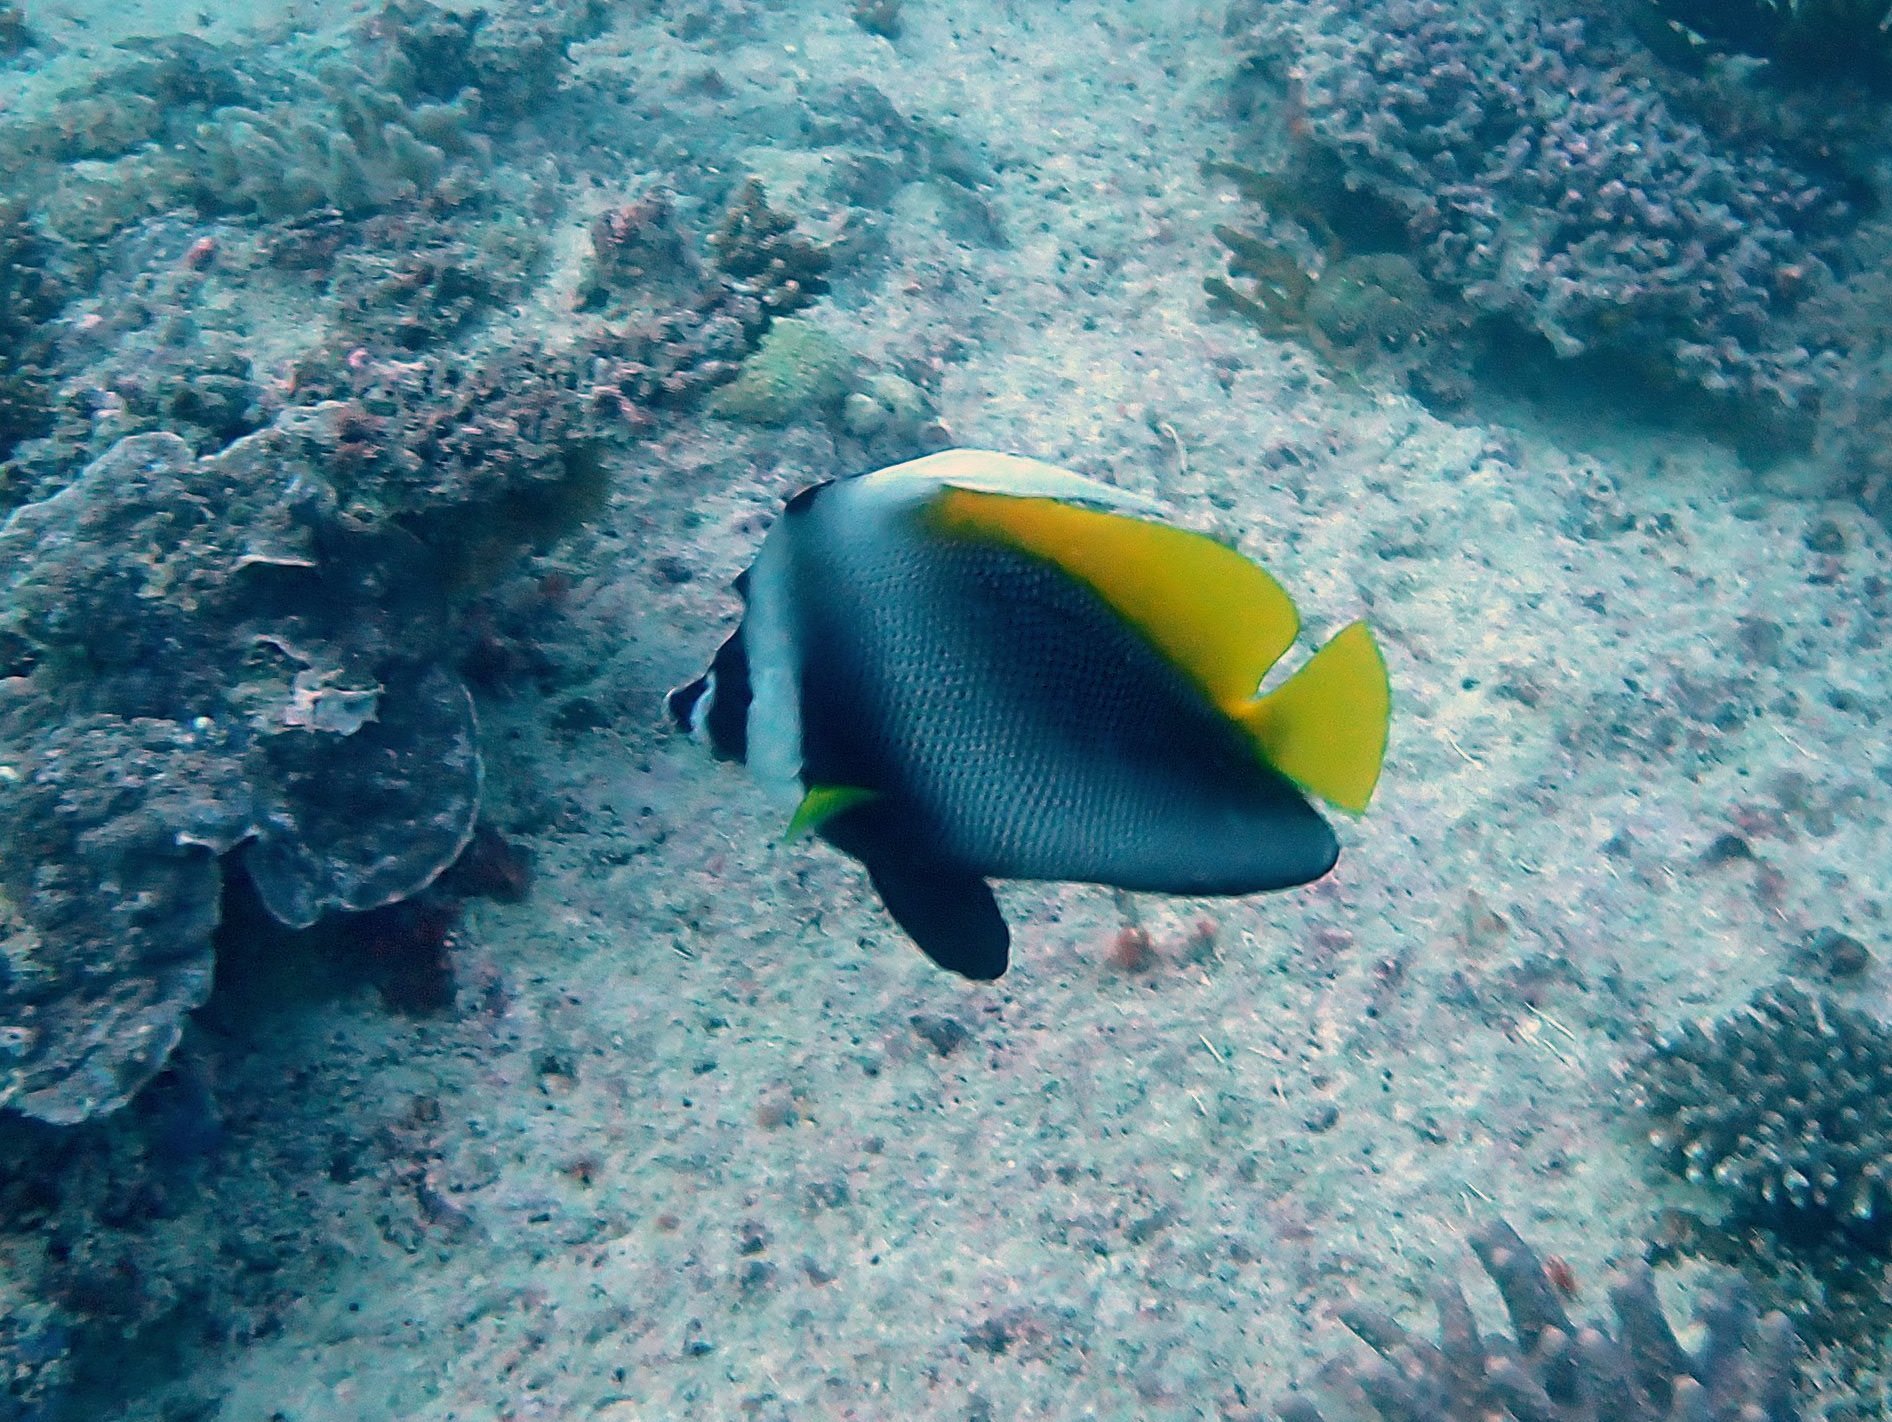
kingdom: Animalia
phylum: Chordata
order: Perciformes
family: Chaetodontidae
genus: Heniochus
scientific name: Heniochus singularius
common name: Singular bannerfish
